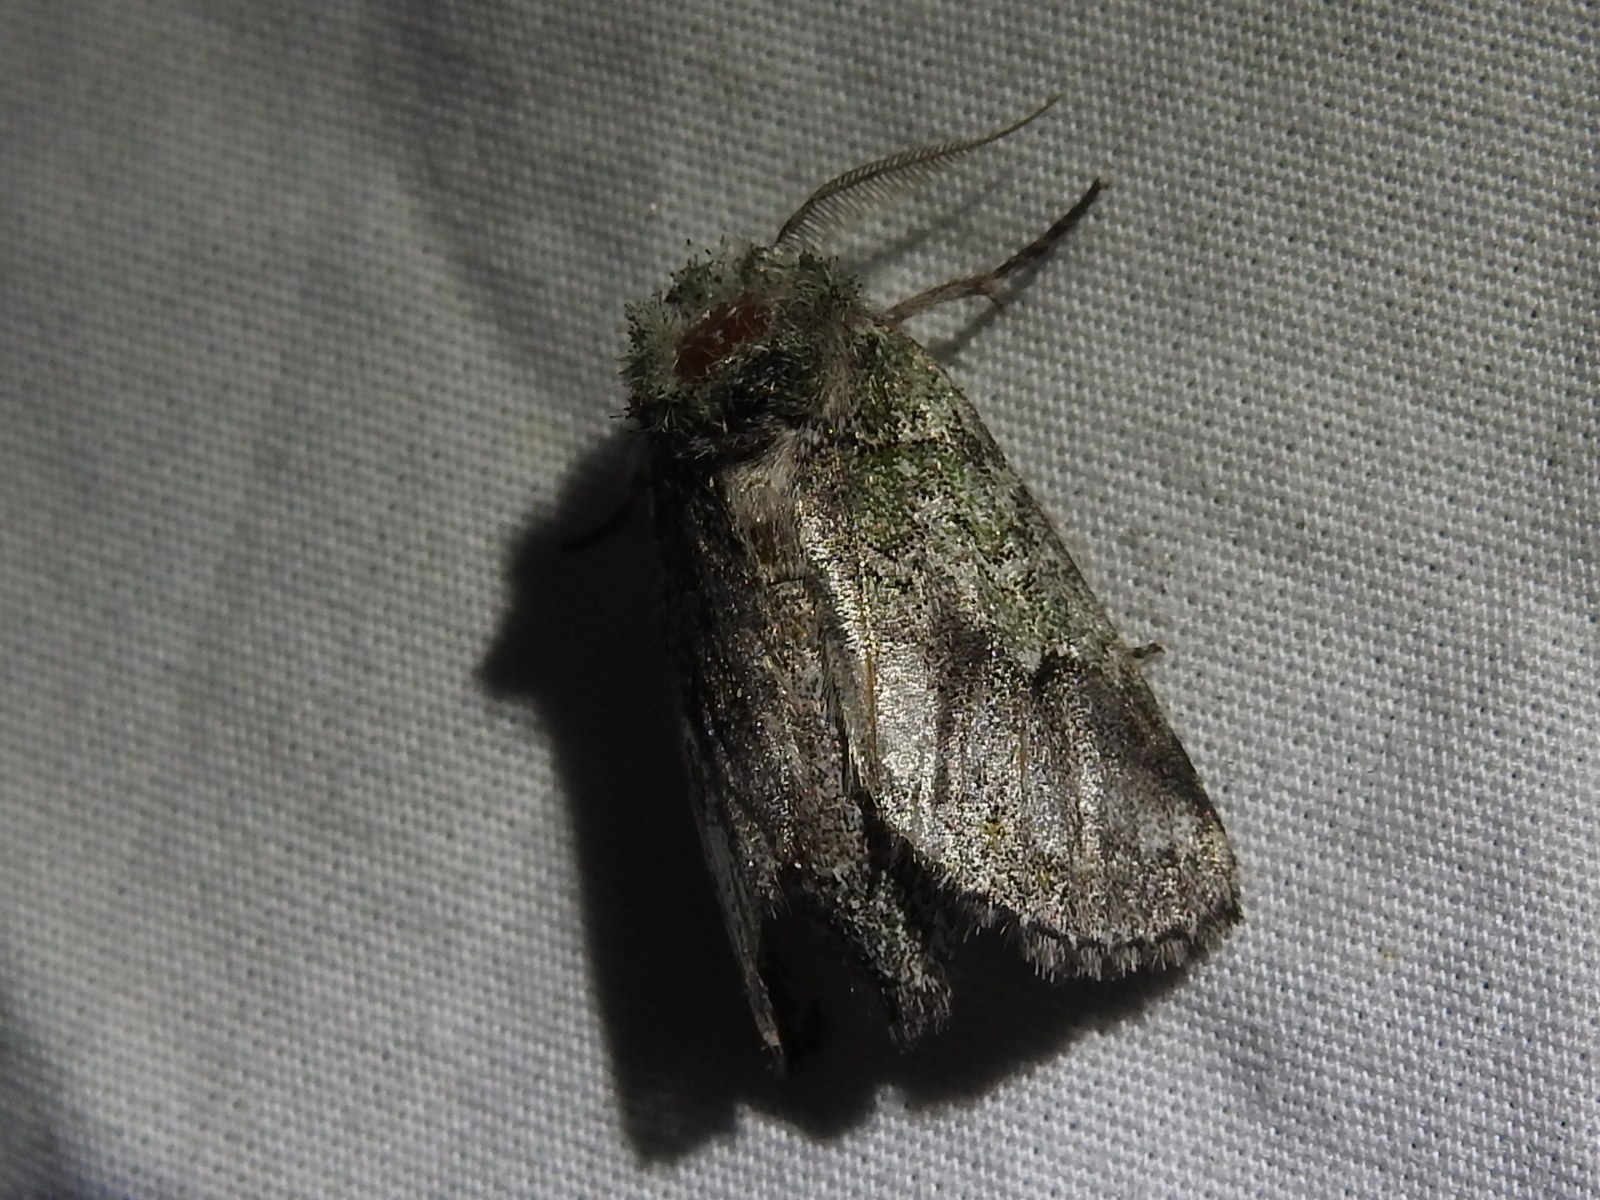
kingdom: Animalia
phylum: Arthropoda
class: Insecta
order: Lepidoptera
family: Notodontidae
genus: Litodonta
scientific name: Litodonta hydromeli
